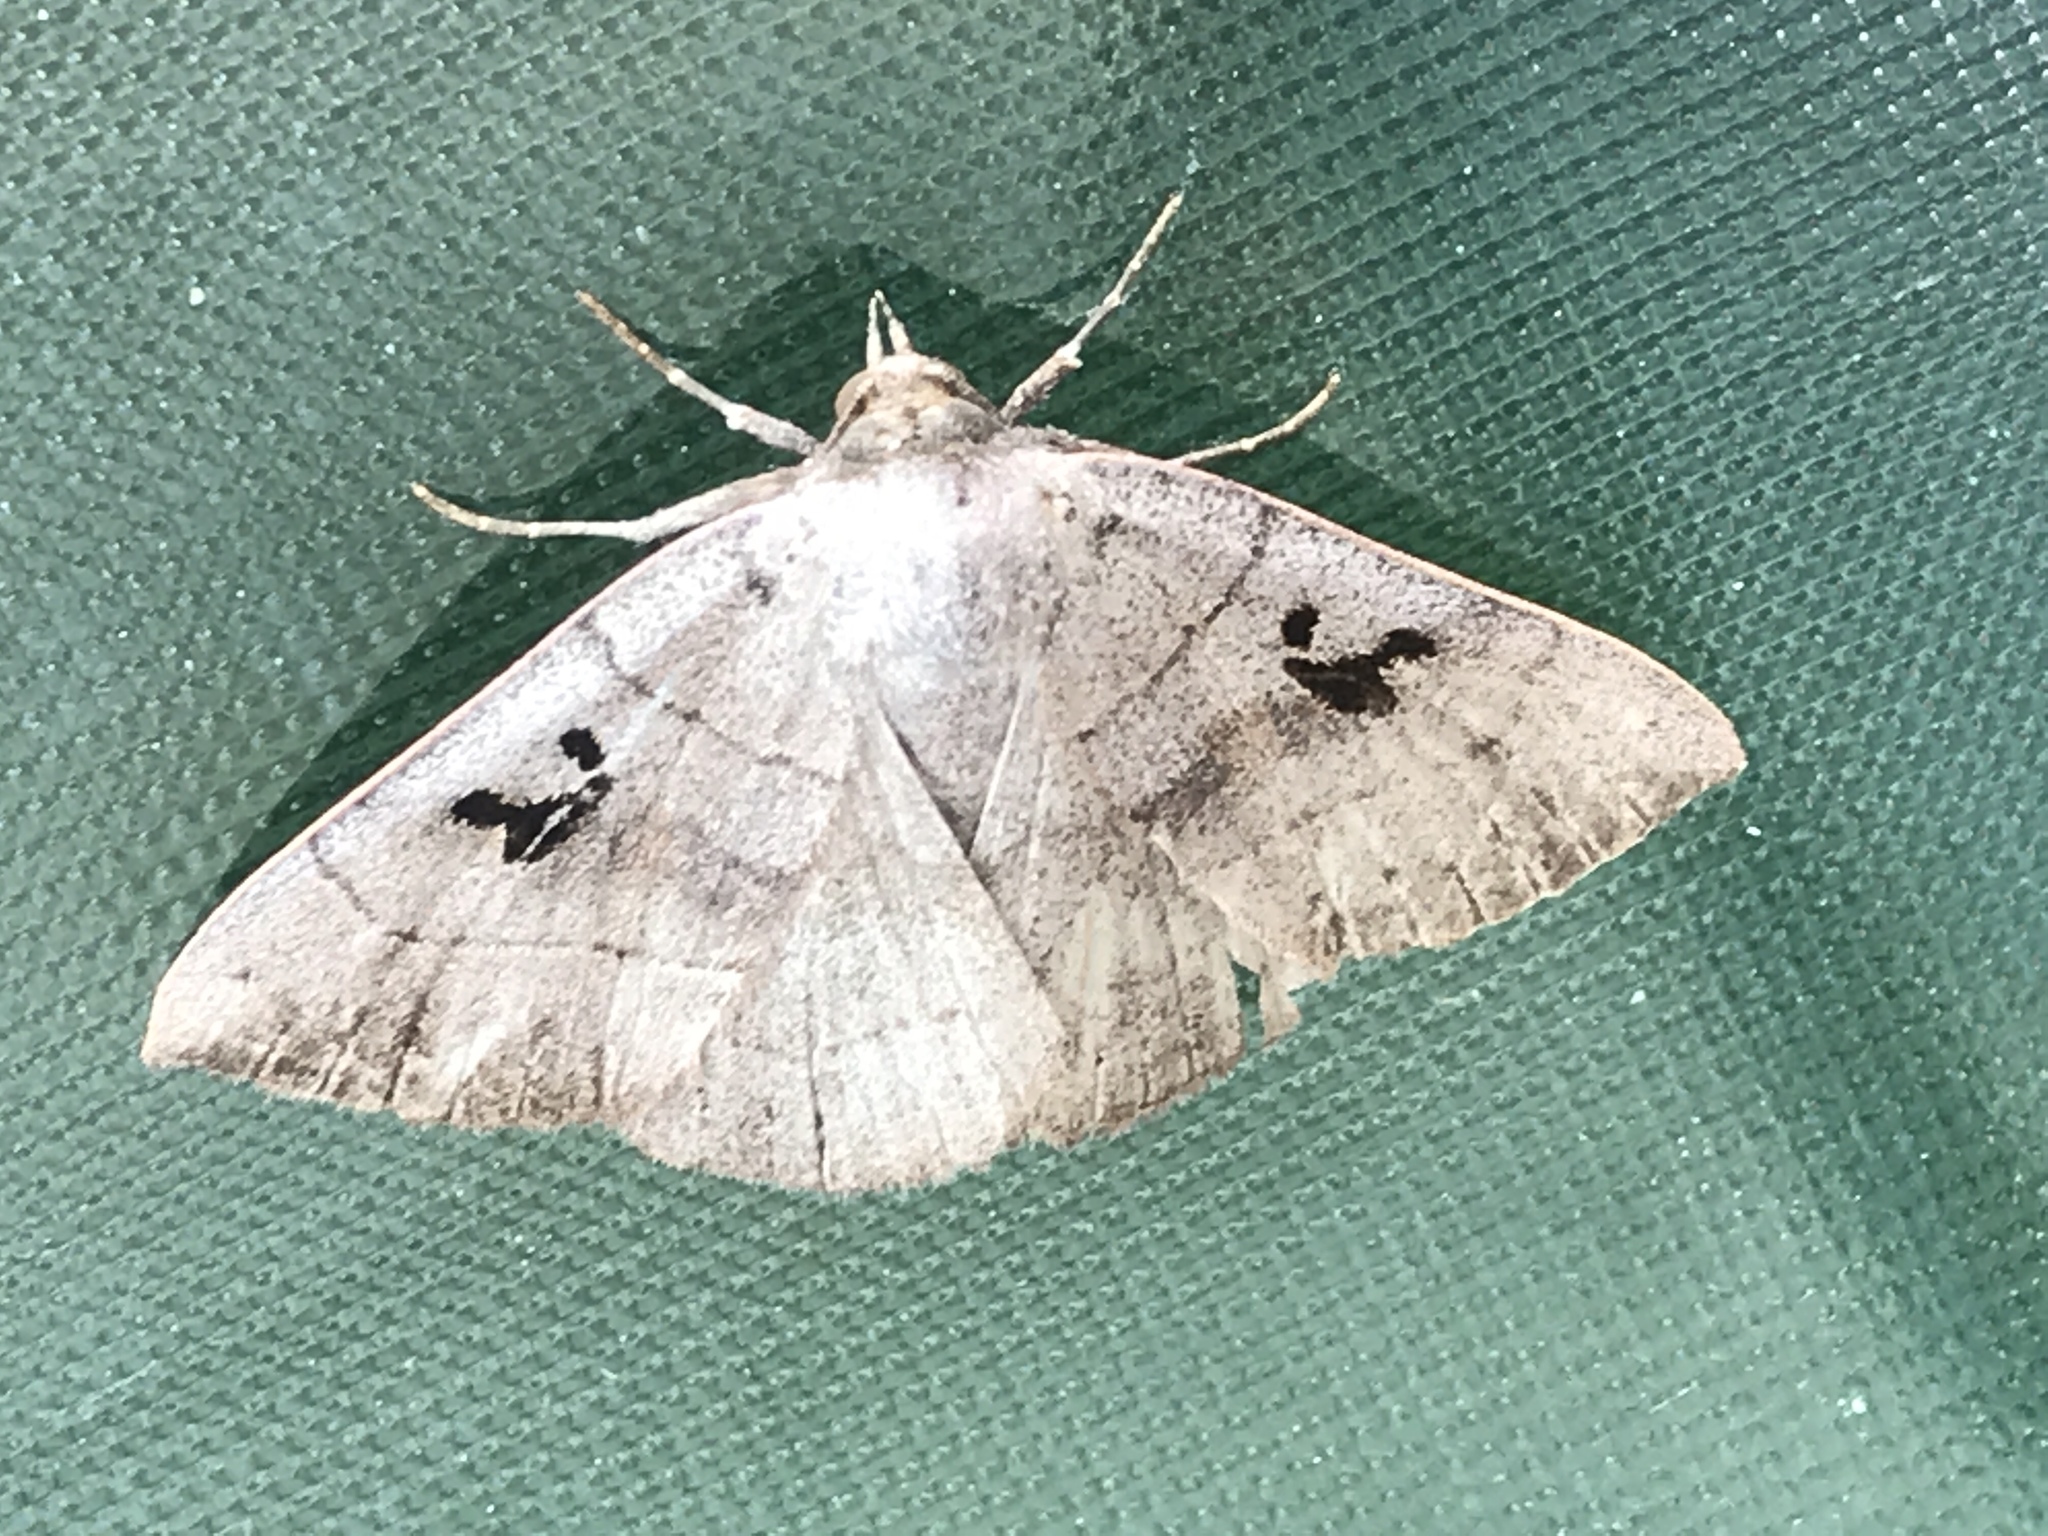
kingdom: Animalia
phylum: Arthropoda
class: Insecta
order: Lepidoptera
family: Erebidae
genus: Panopoda
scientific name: Panopoda carneicosta
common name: Brown panopoda moth
